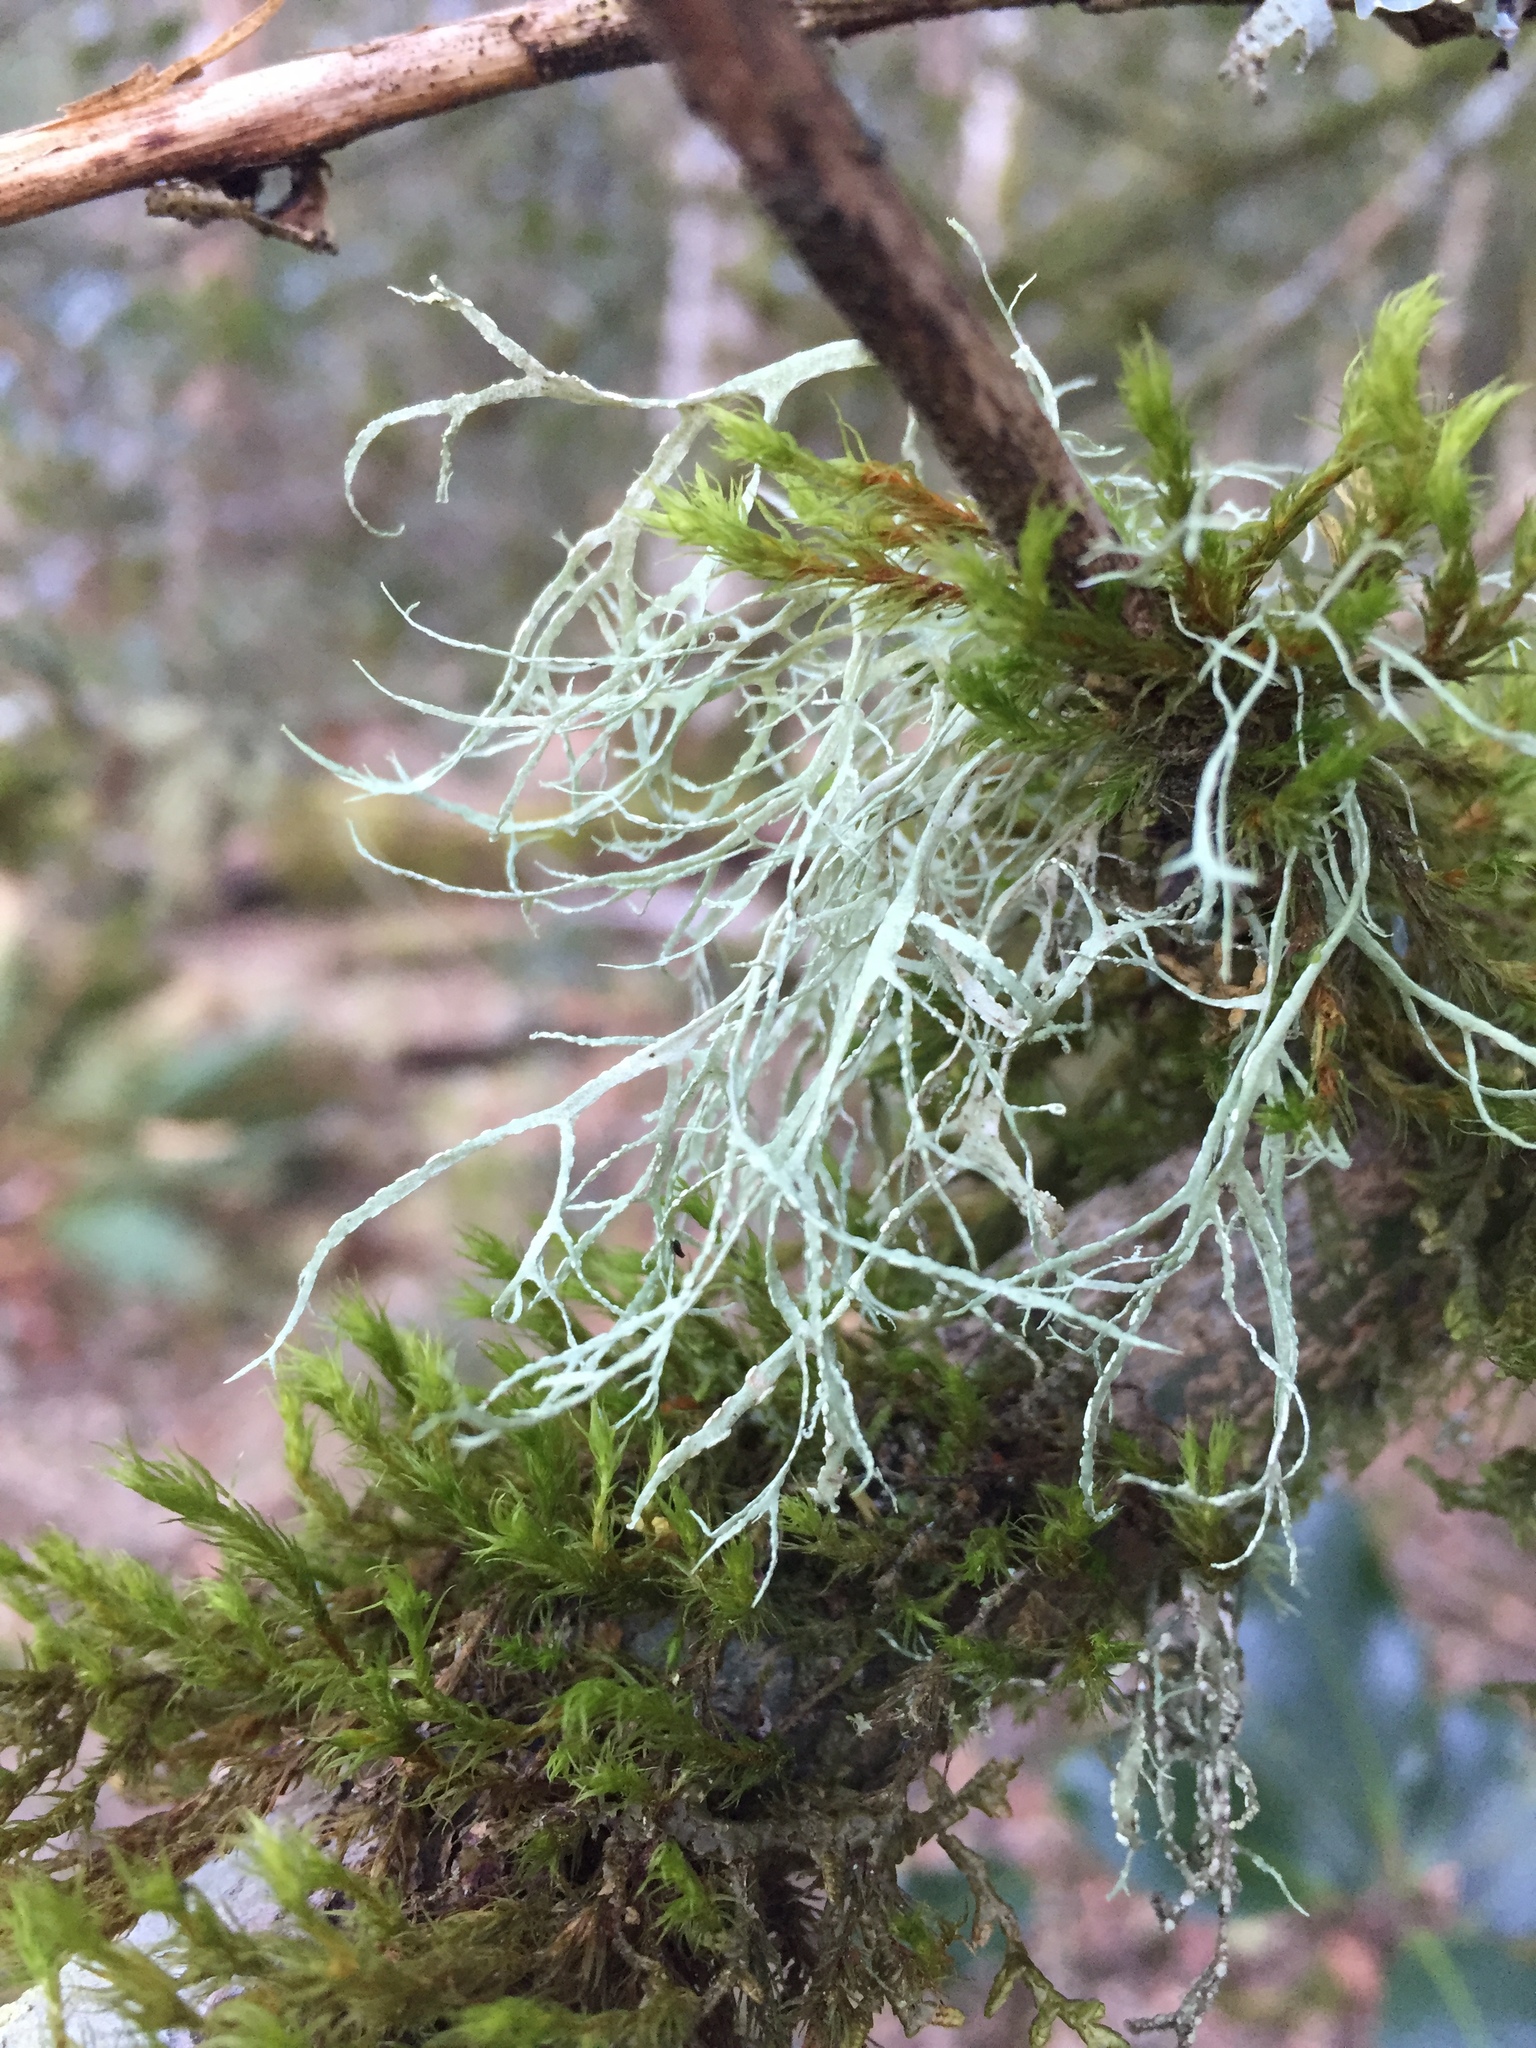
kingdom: Fungi
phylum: Ascomycota
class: Lecanoromycetes
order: Lecanorales
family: Ramalinaceae
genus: Ramalina
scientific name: Ramalina farinacea
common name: Farinose cartilage lichen
